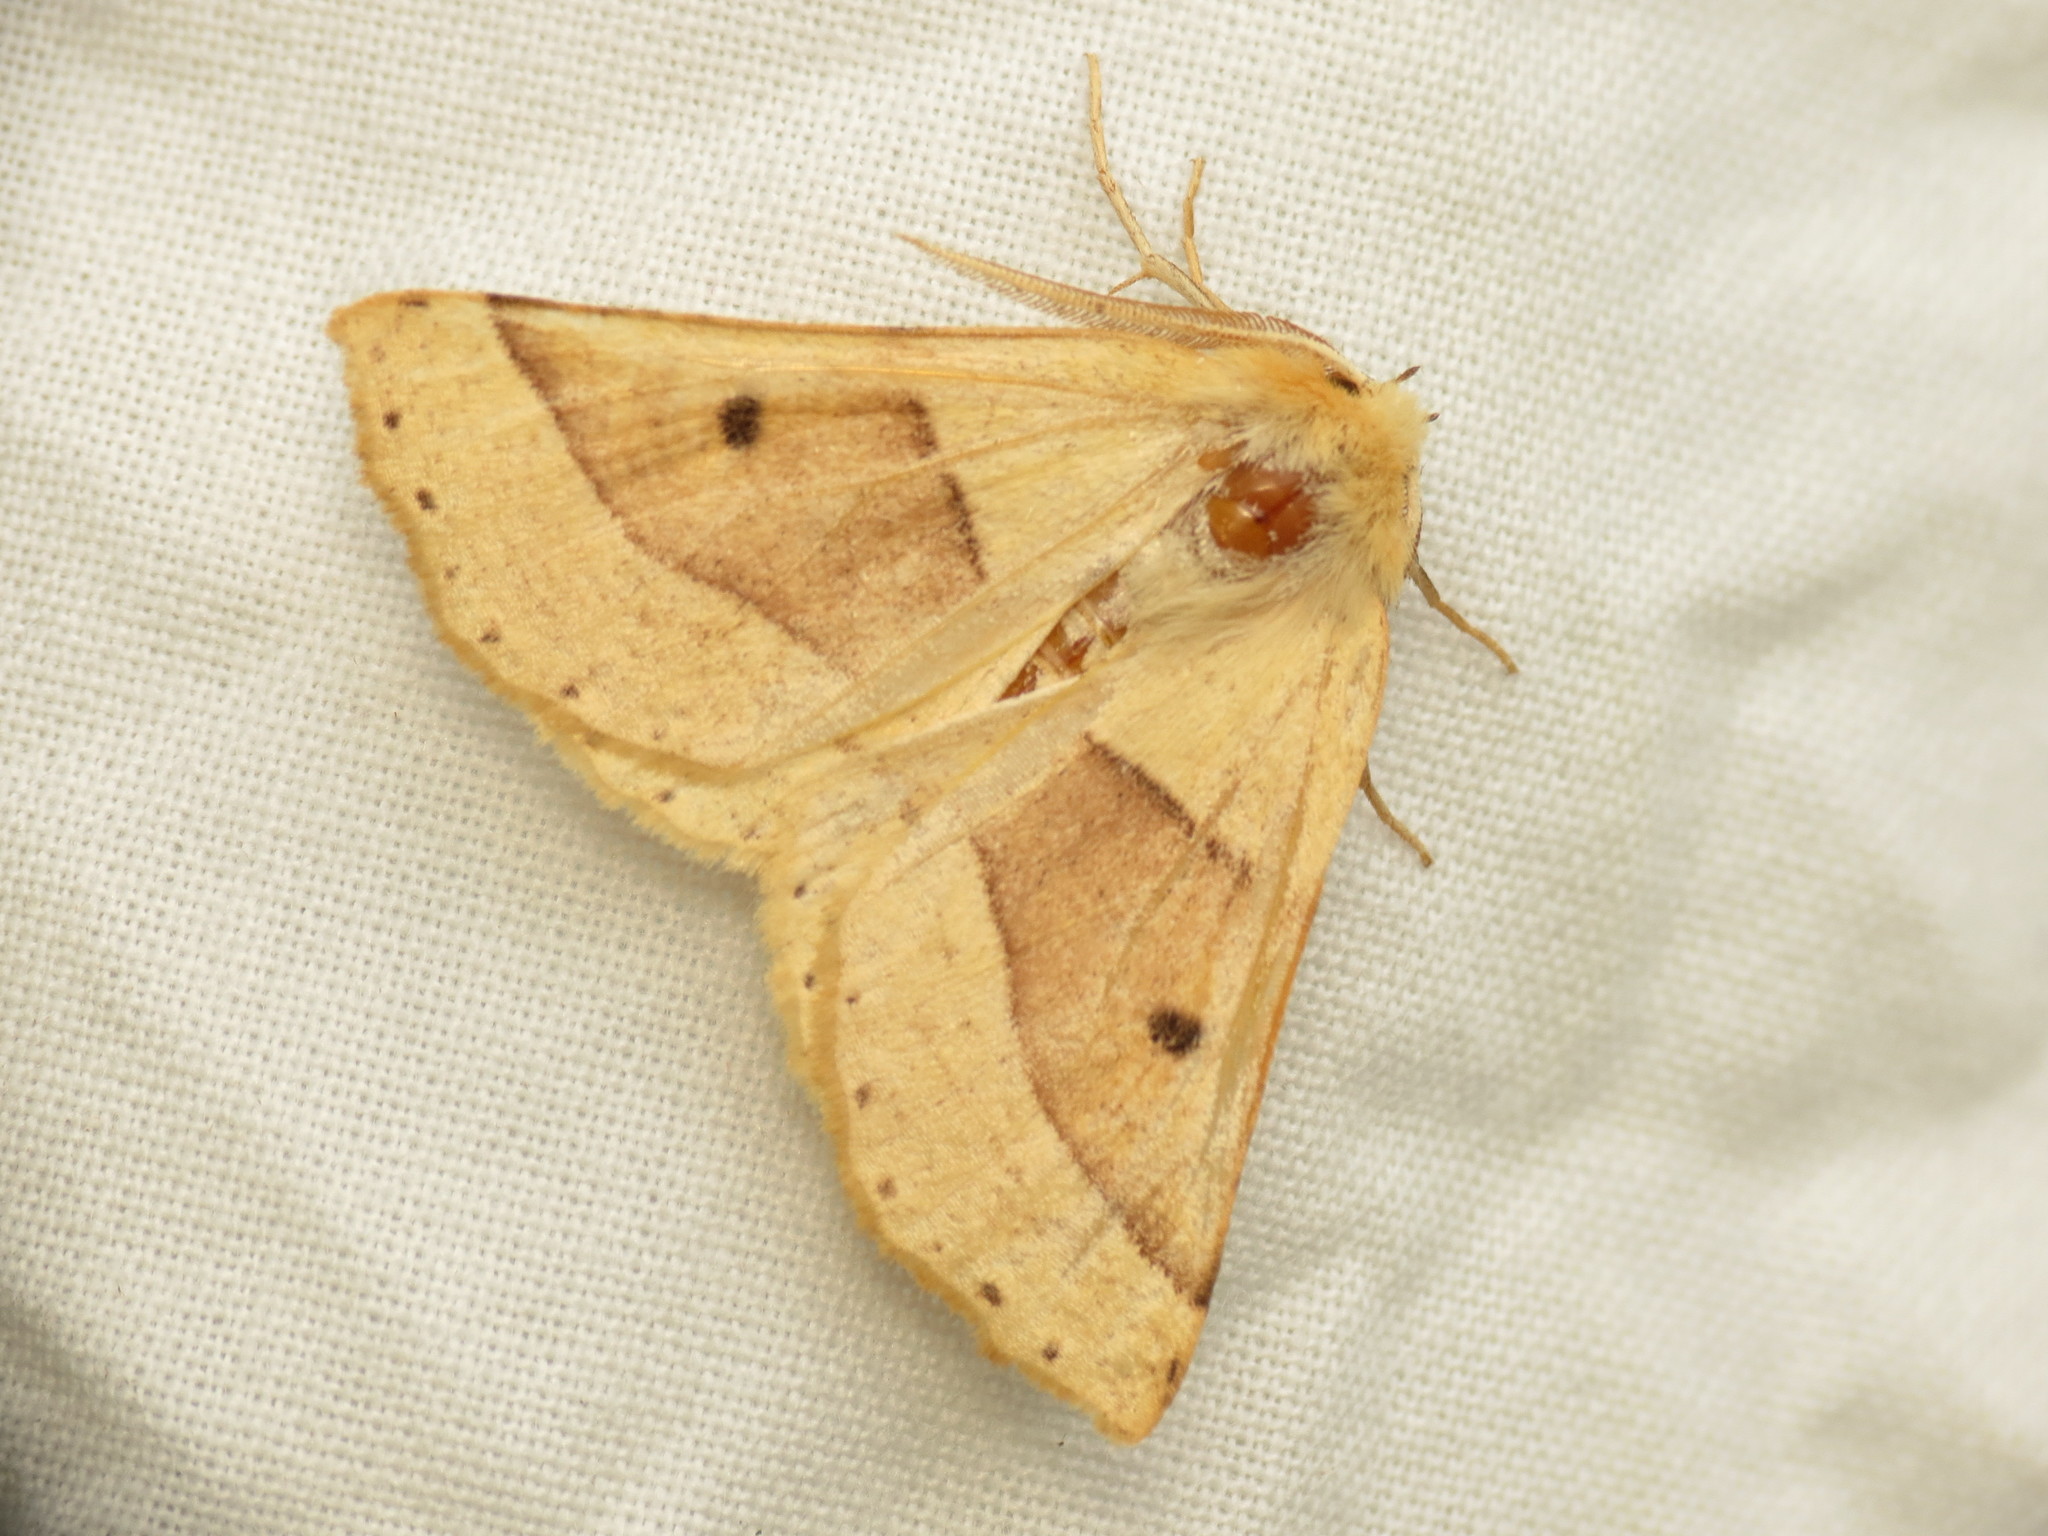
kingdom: Animalia
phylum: Arthropoda
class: Insecta
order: Lepidoptera
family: Geometridae
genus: Crocallis
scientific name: Crocallis elinguaria
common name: Scalloped oak
